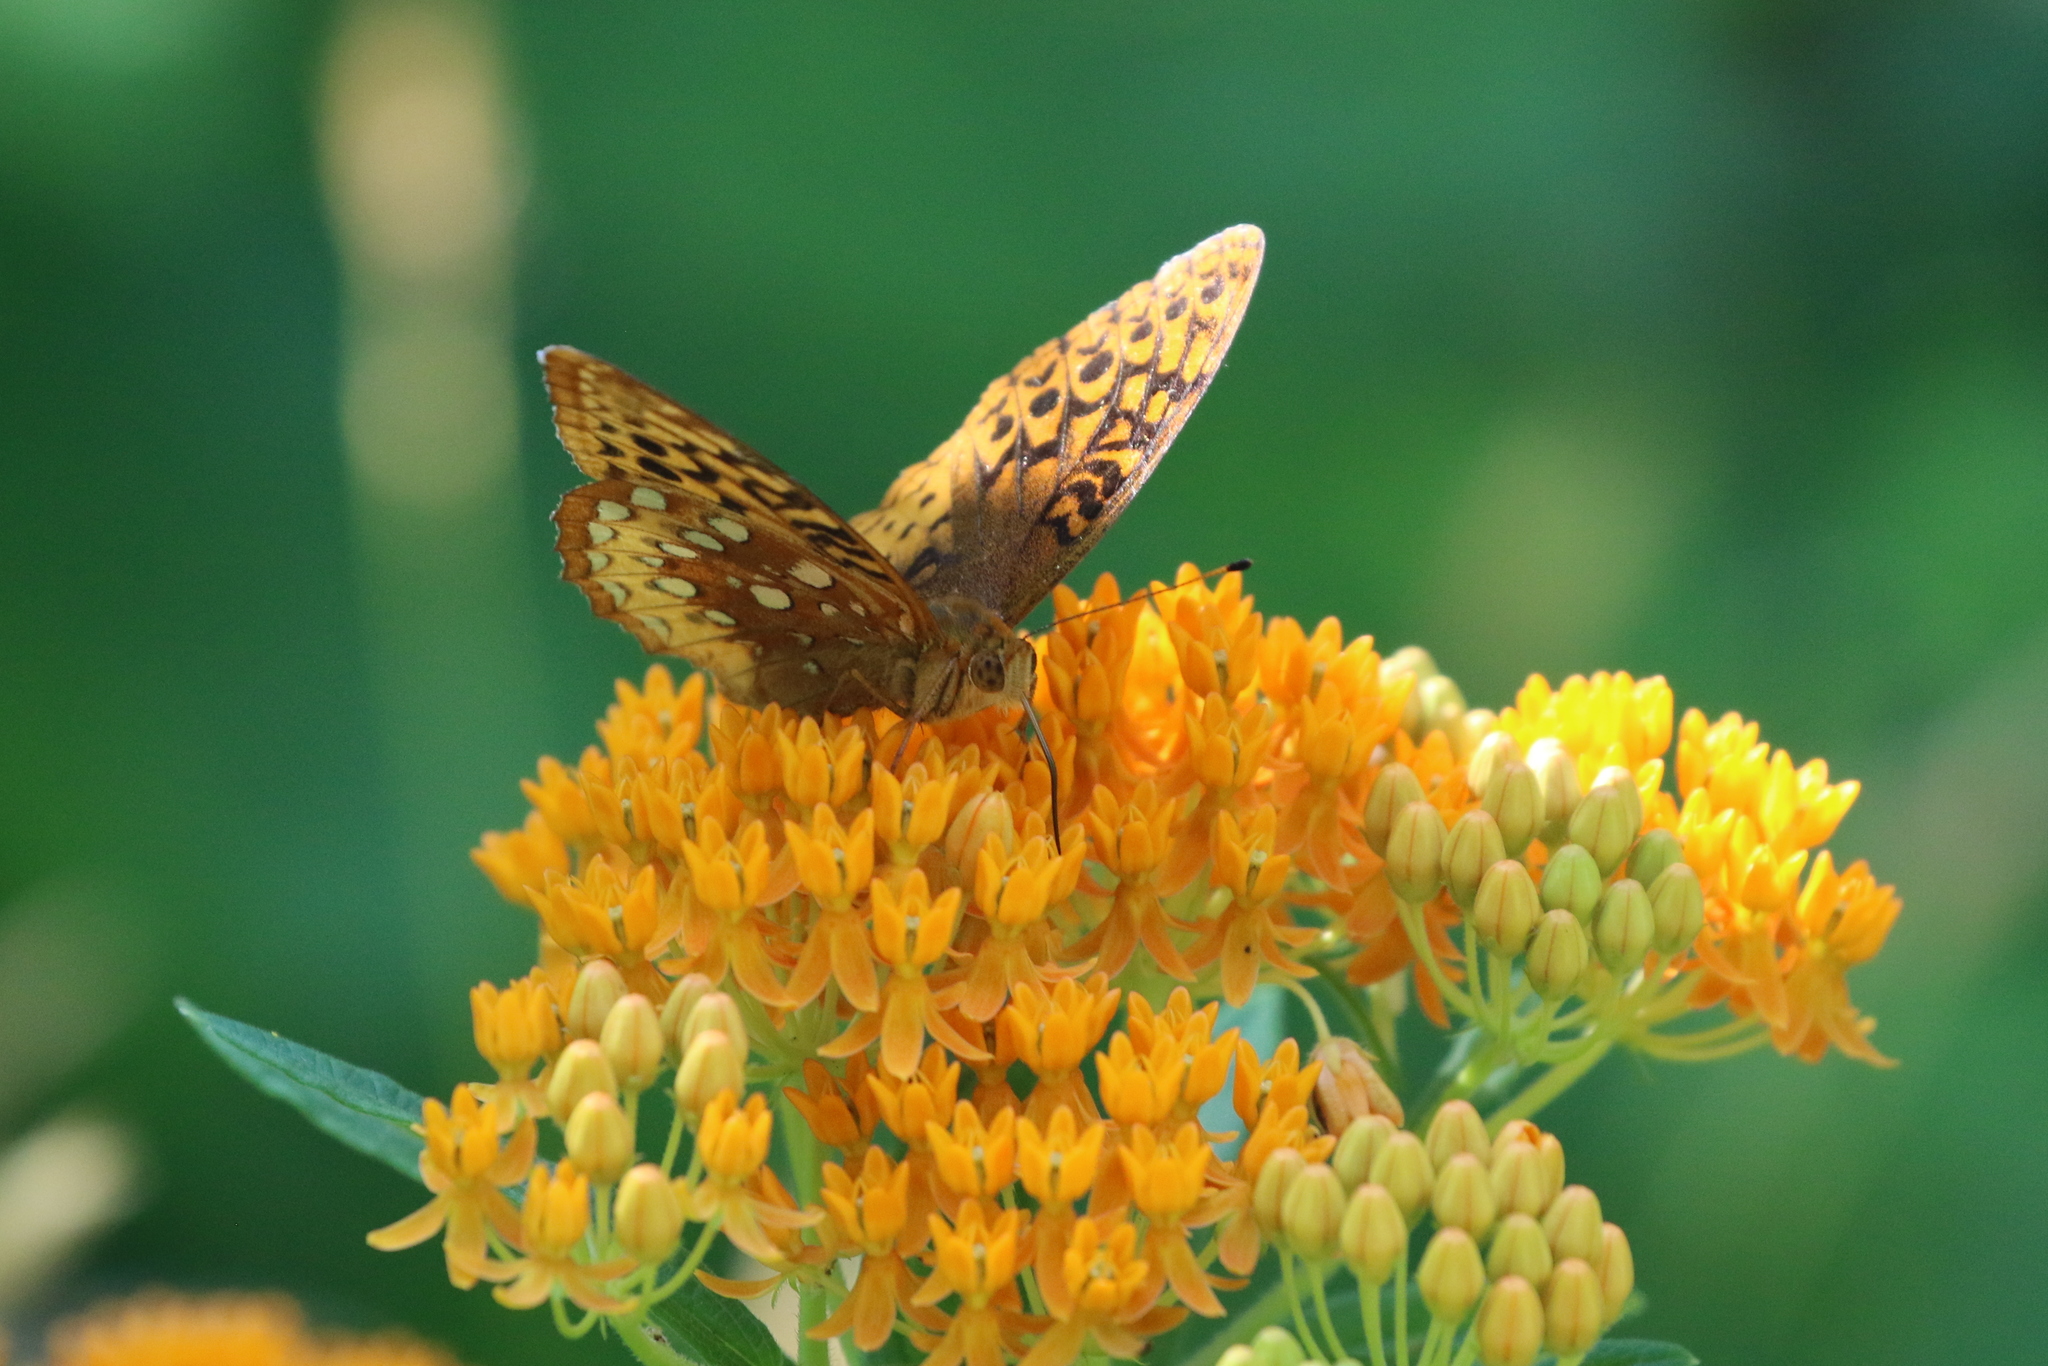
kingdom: Animalia
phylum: Arthropoda
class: Insecta
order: Lepidoptera
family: Nymphalidae
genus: Speyeria
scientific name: Speyeria cybele
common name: Great spangled fritillary
